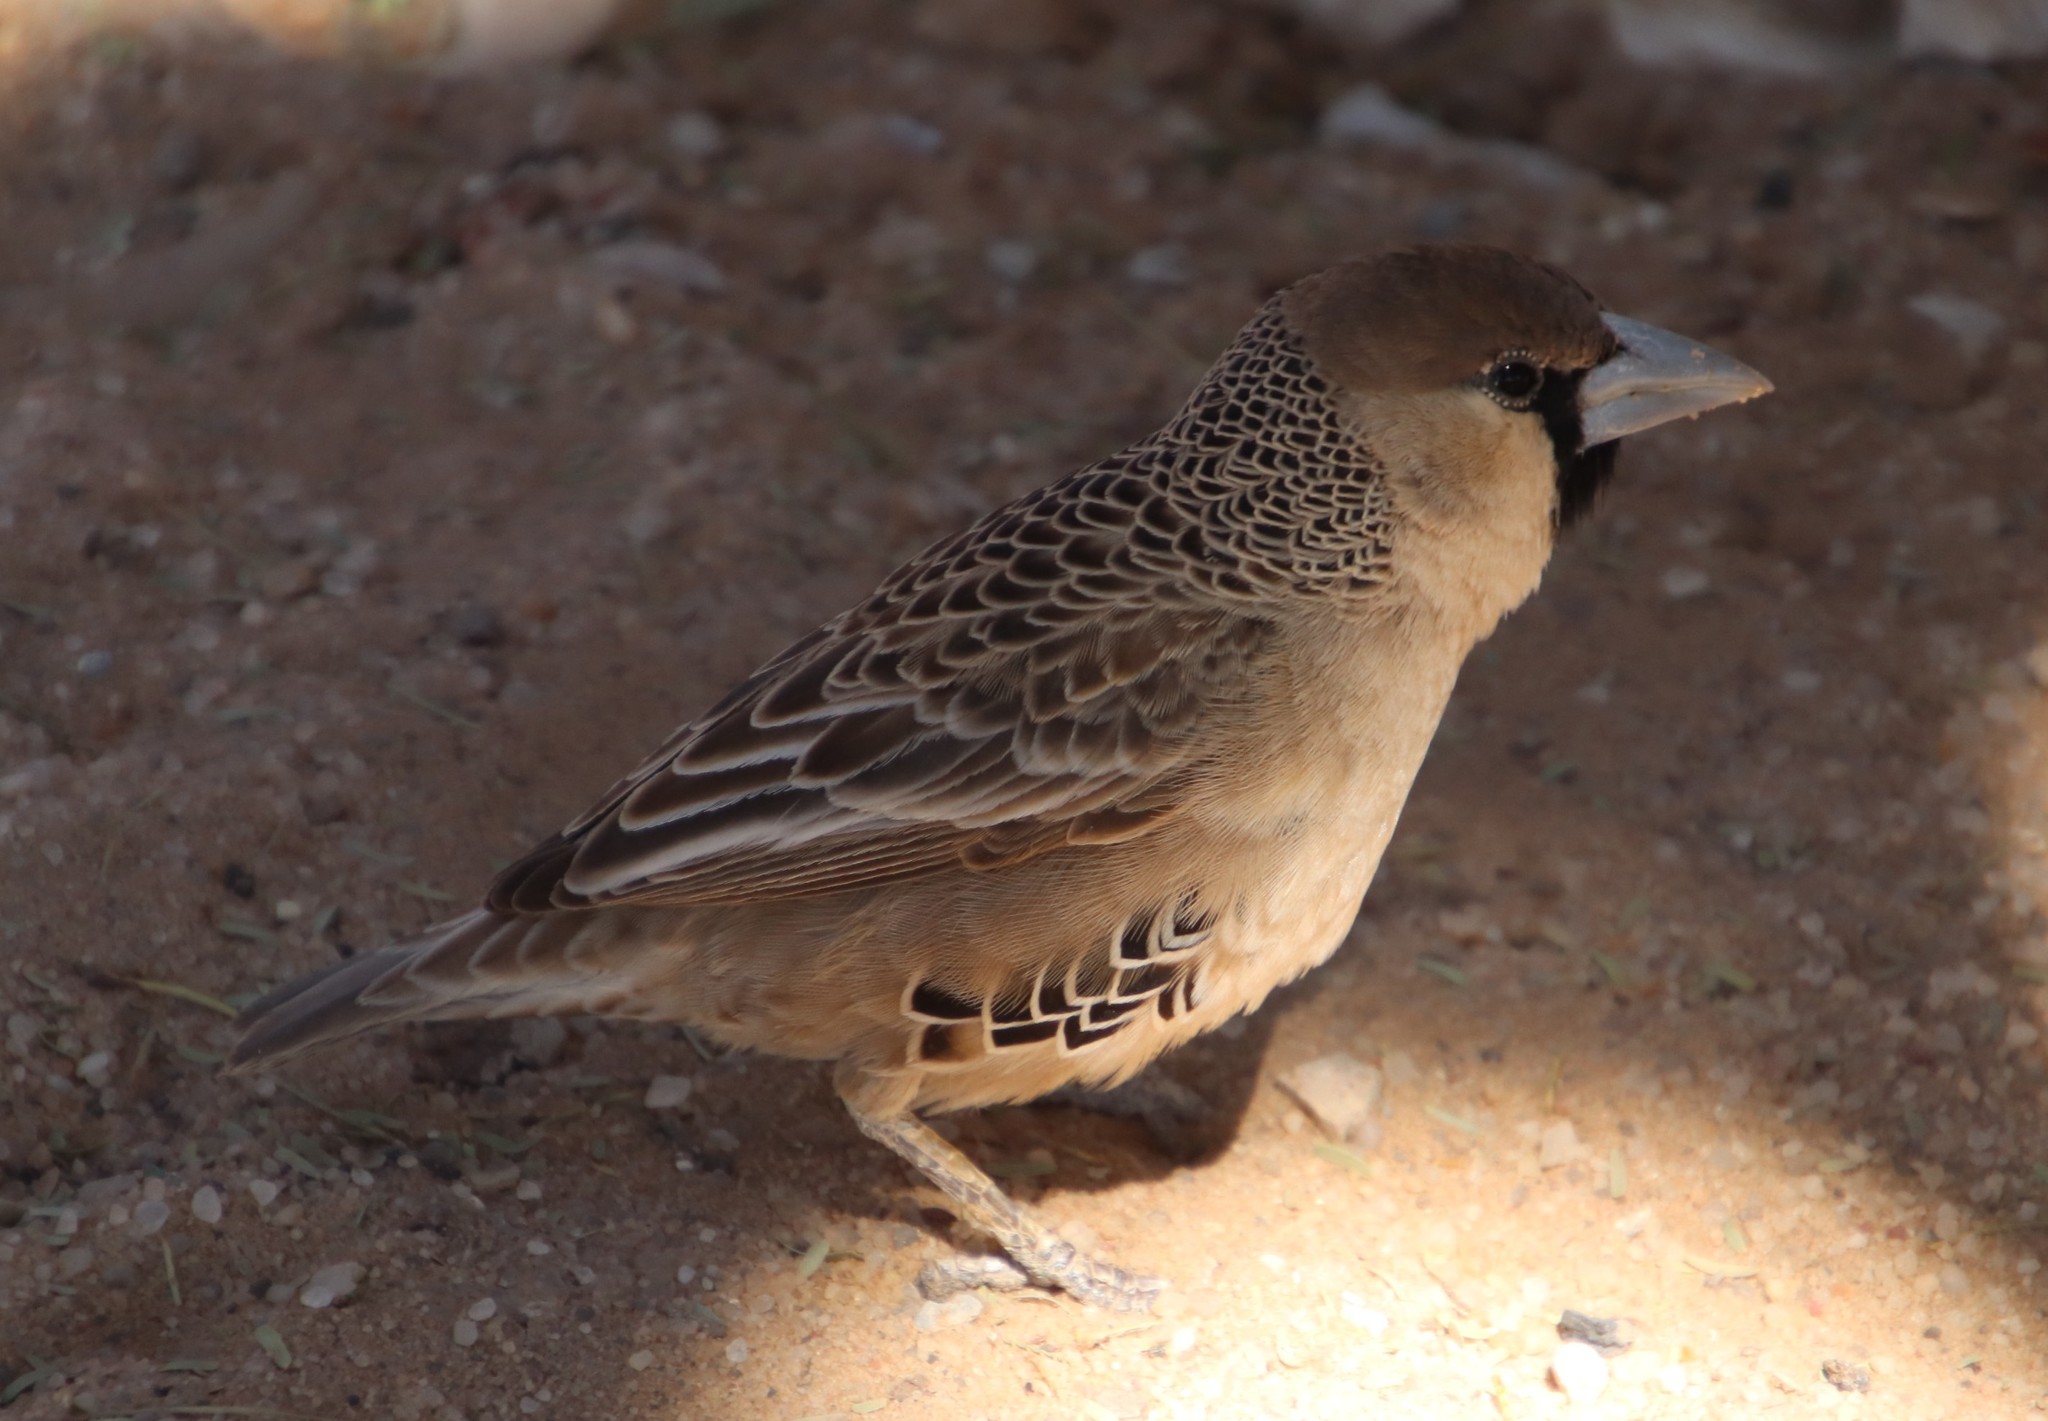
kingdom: Animalia
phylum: Chordata
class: Aves
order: Passeriformes
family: Passeridae
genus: Philetairus
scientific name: Philetairus socius
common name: Sociable weaver
